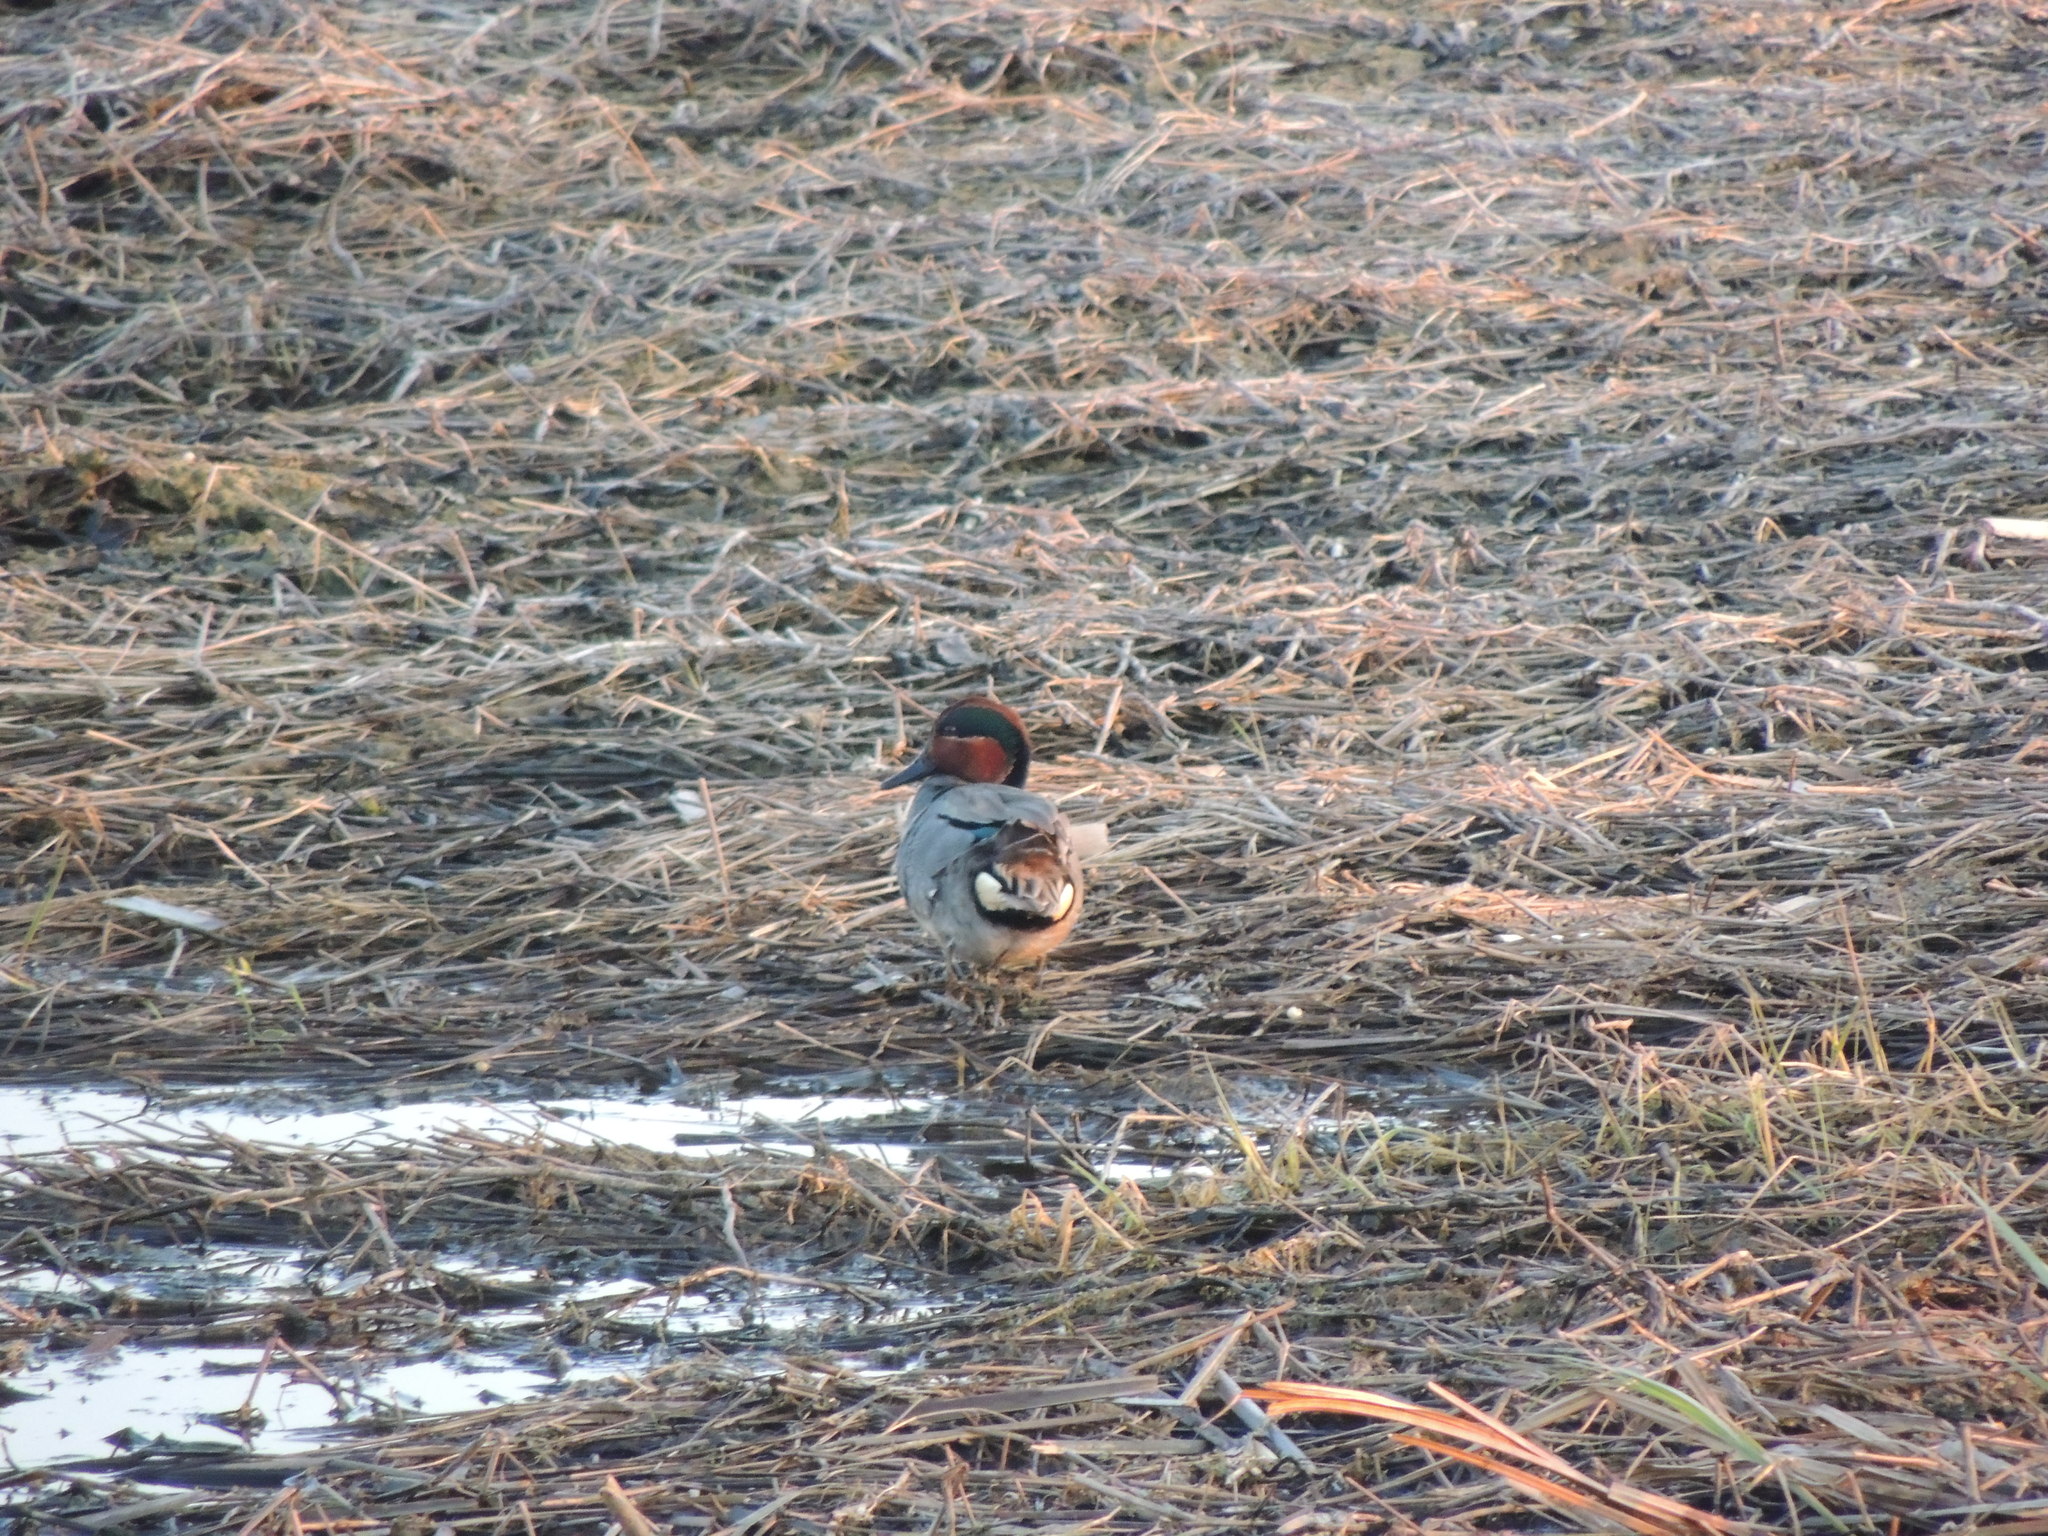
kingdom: Animalia
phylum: Chordata
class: Aves
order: Anseriformes
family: Anatidae
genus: Anas
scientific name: Anas crecca
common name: Eurasian teal
